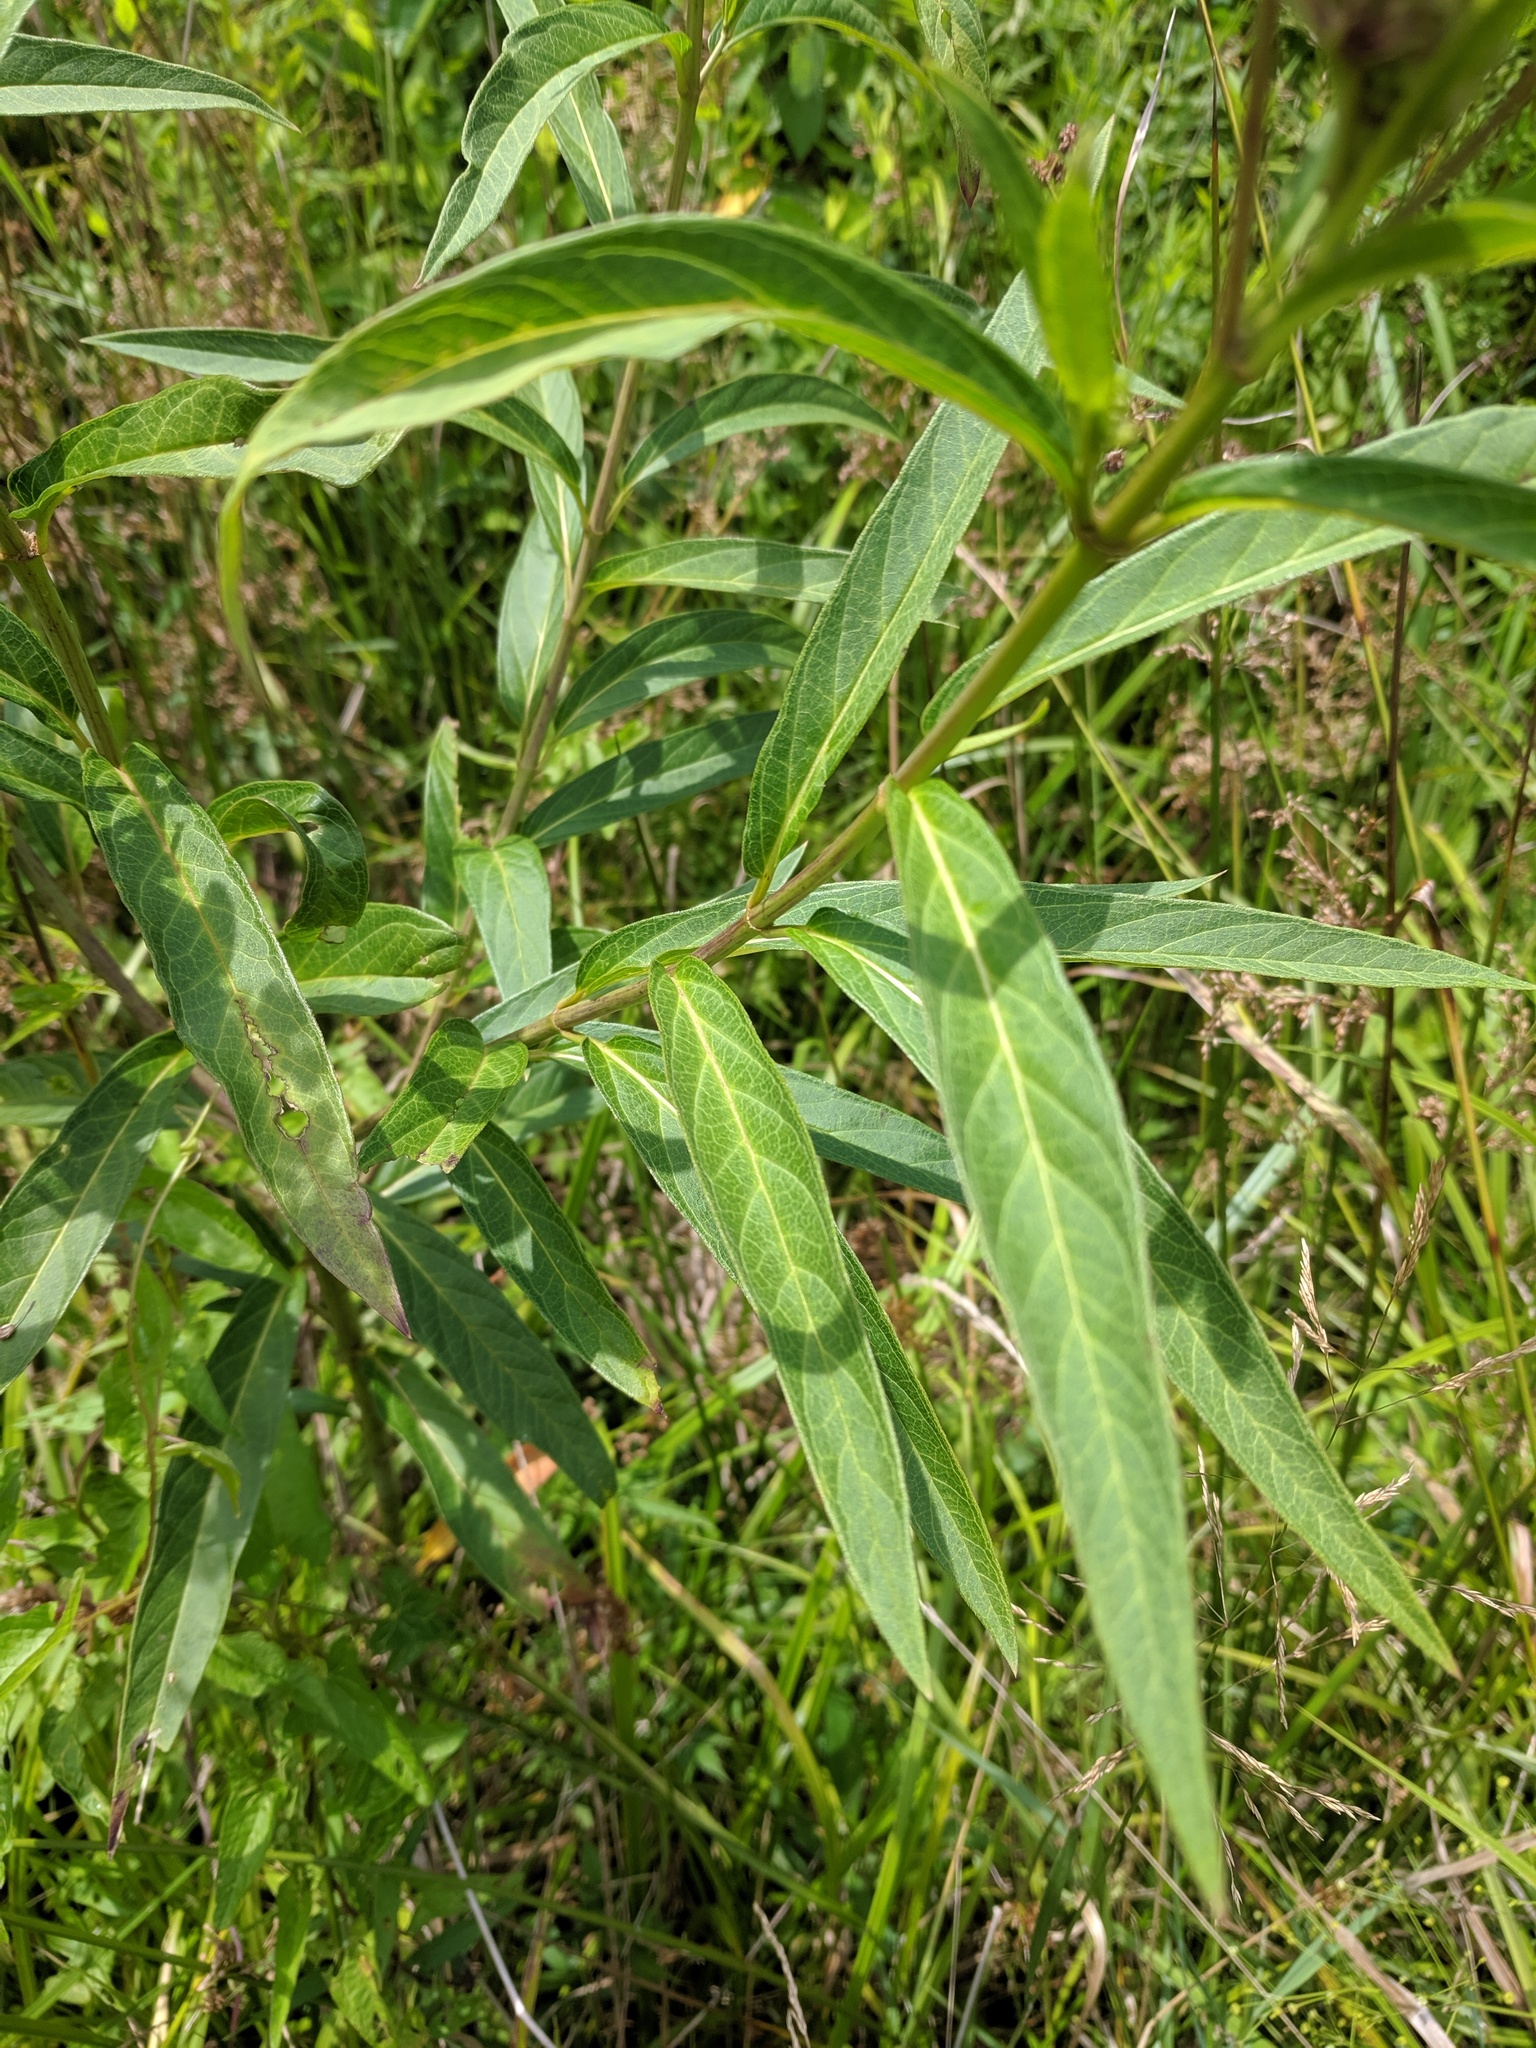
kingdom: Plantae
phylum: Tracheophyta
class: Magnoliopsida
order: Gentianales
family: Apocynaceae
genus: Asclepias
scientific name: Asclepias incarnata
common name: Swamp milkweed
